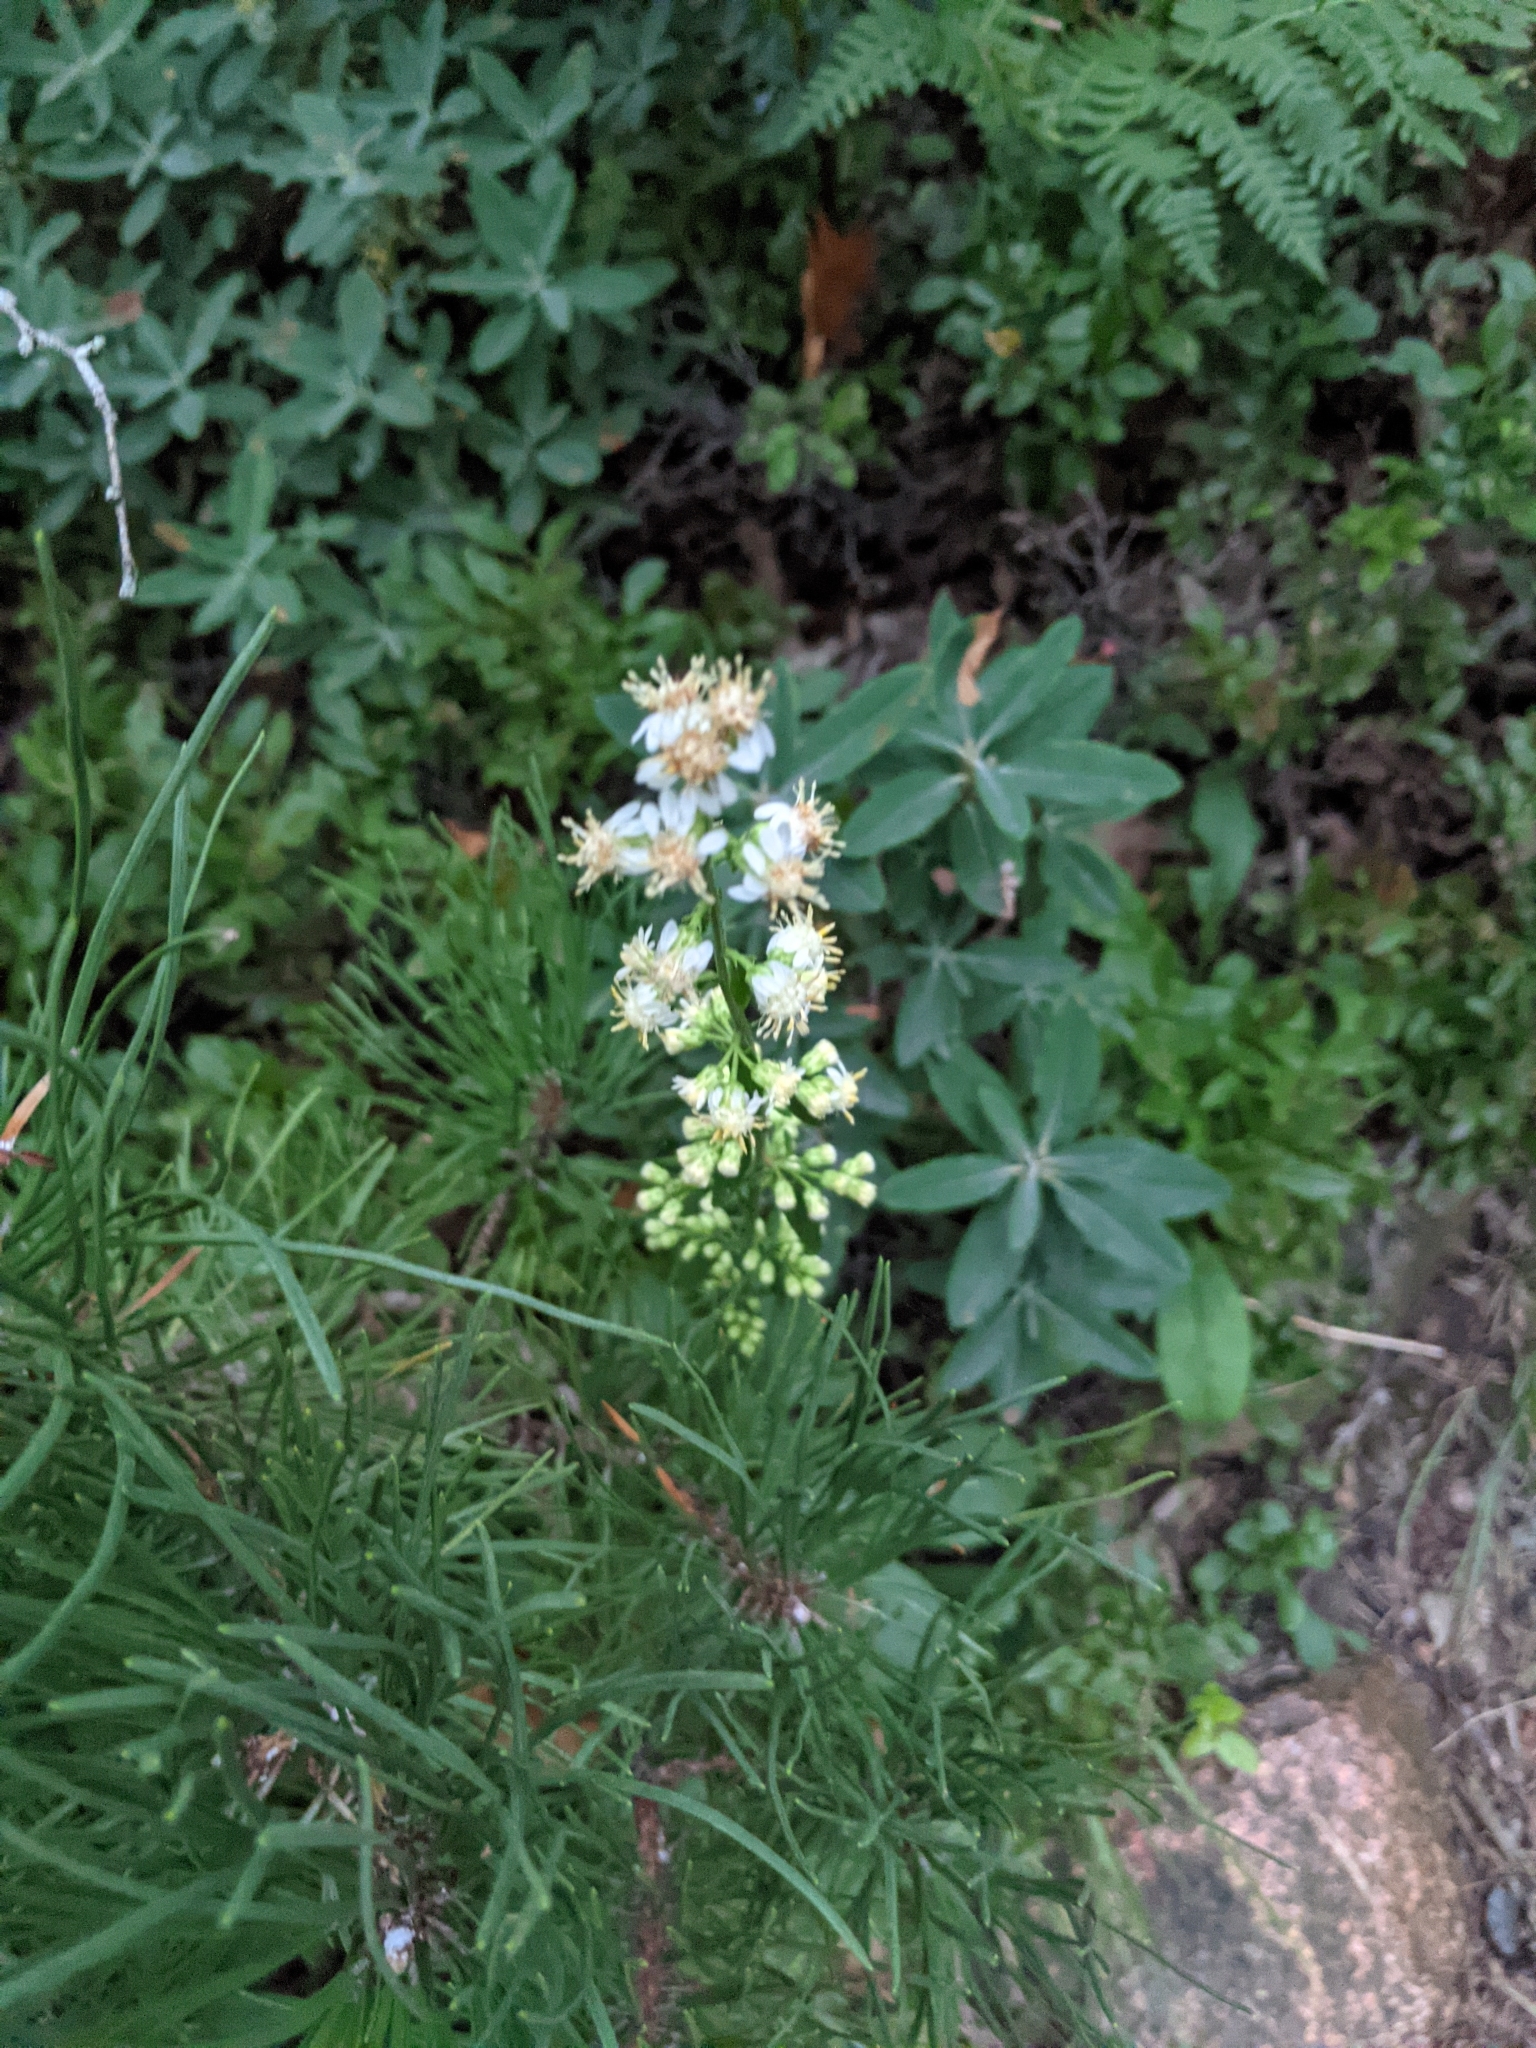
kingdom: Plantae
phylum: Tracheophyta
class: Magnoliopsida
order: Asterales
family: Asteraceae
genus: Solidago
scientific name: Solidago bicolor
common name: Silverrod
